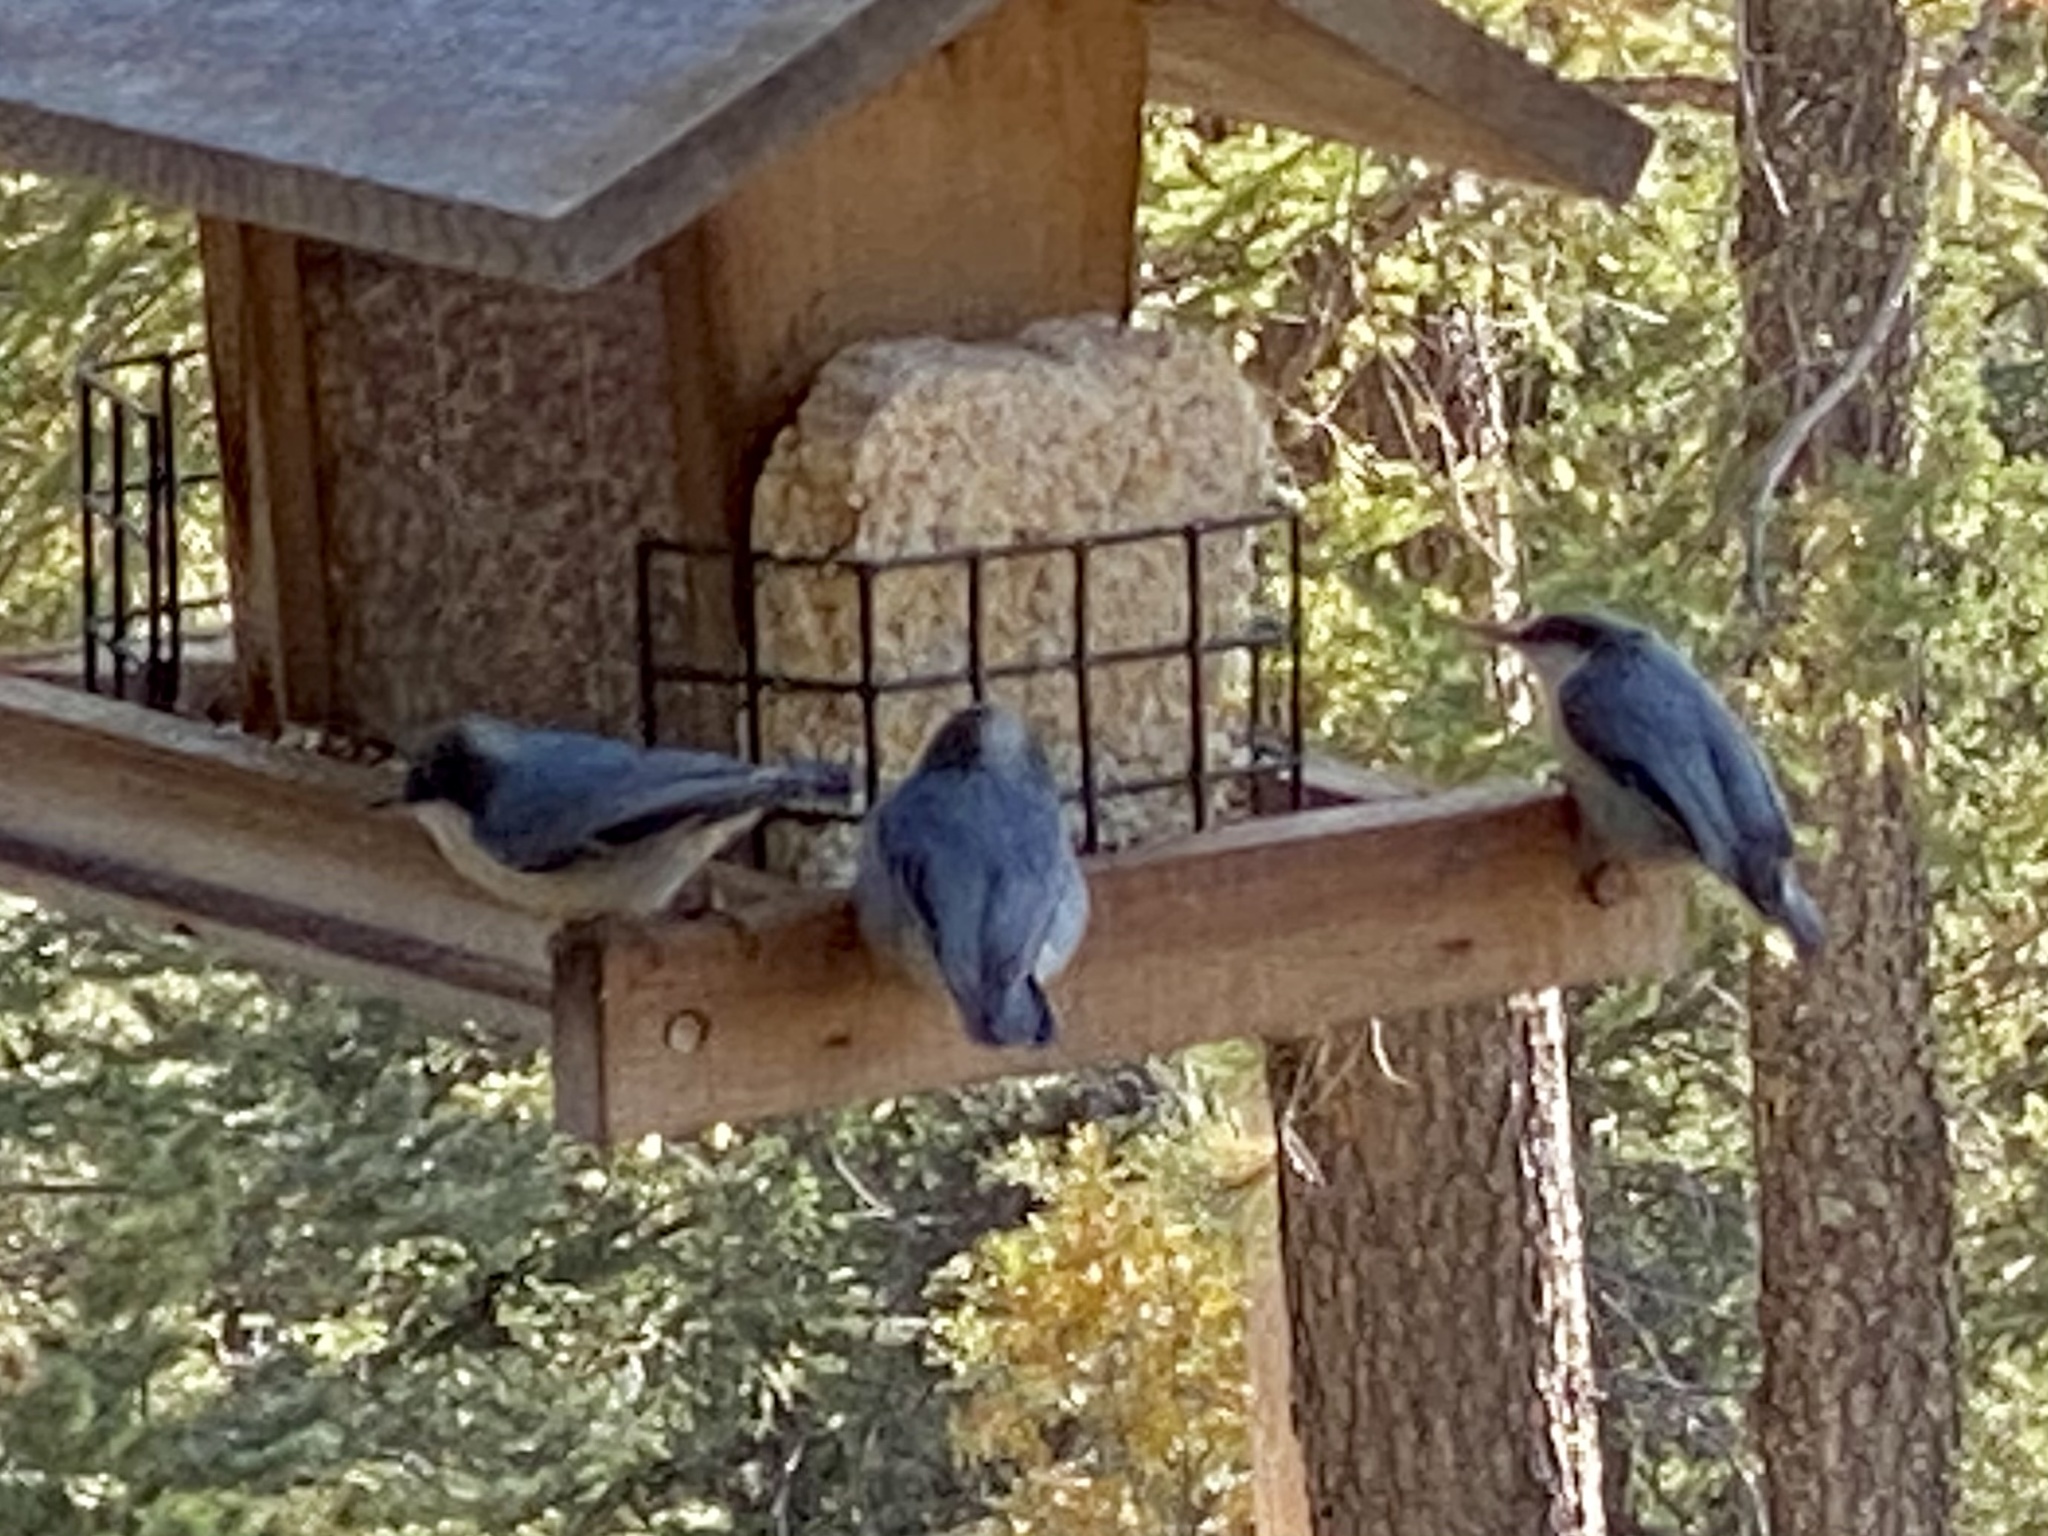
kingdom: Animalia
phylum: Chordata
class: Aves
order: Passeriformes
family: Sittidae
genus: Sitta
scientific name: Sitta pygmaea
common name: Pygmy nuthatch
